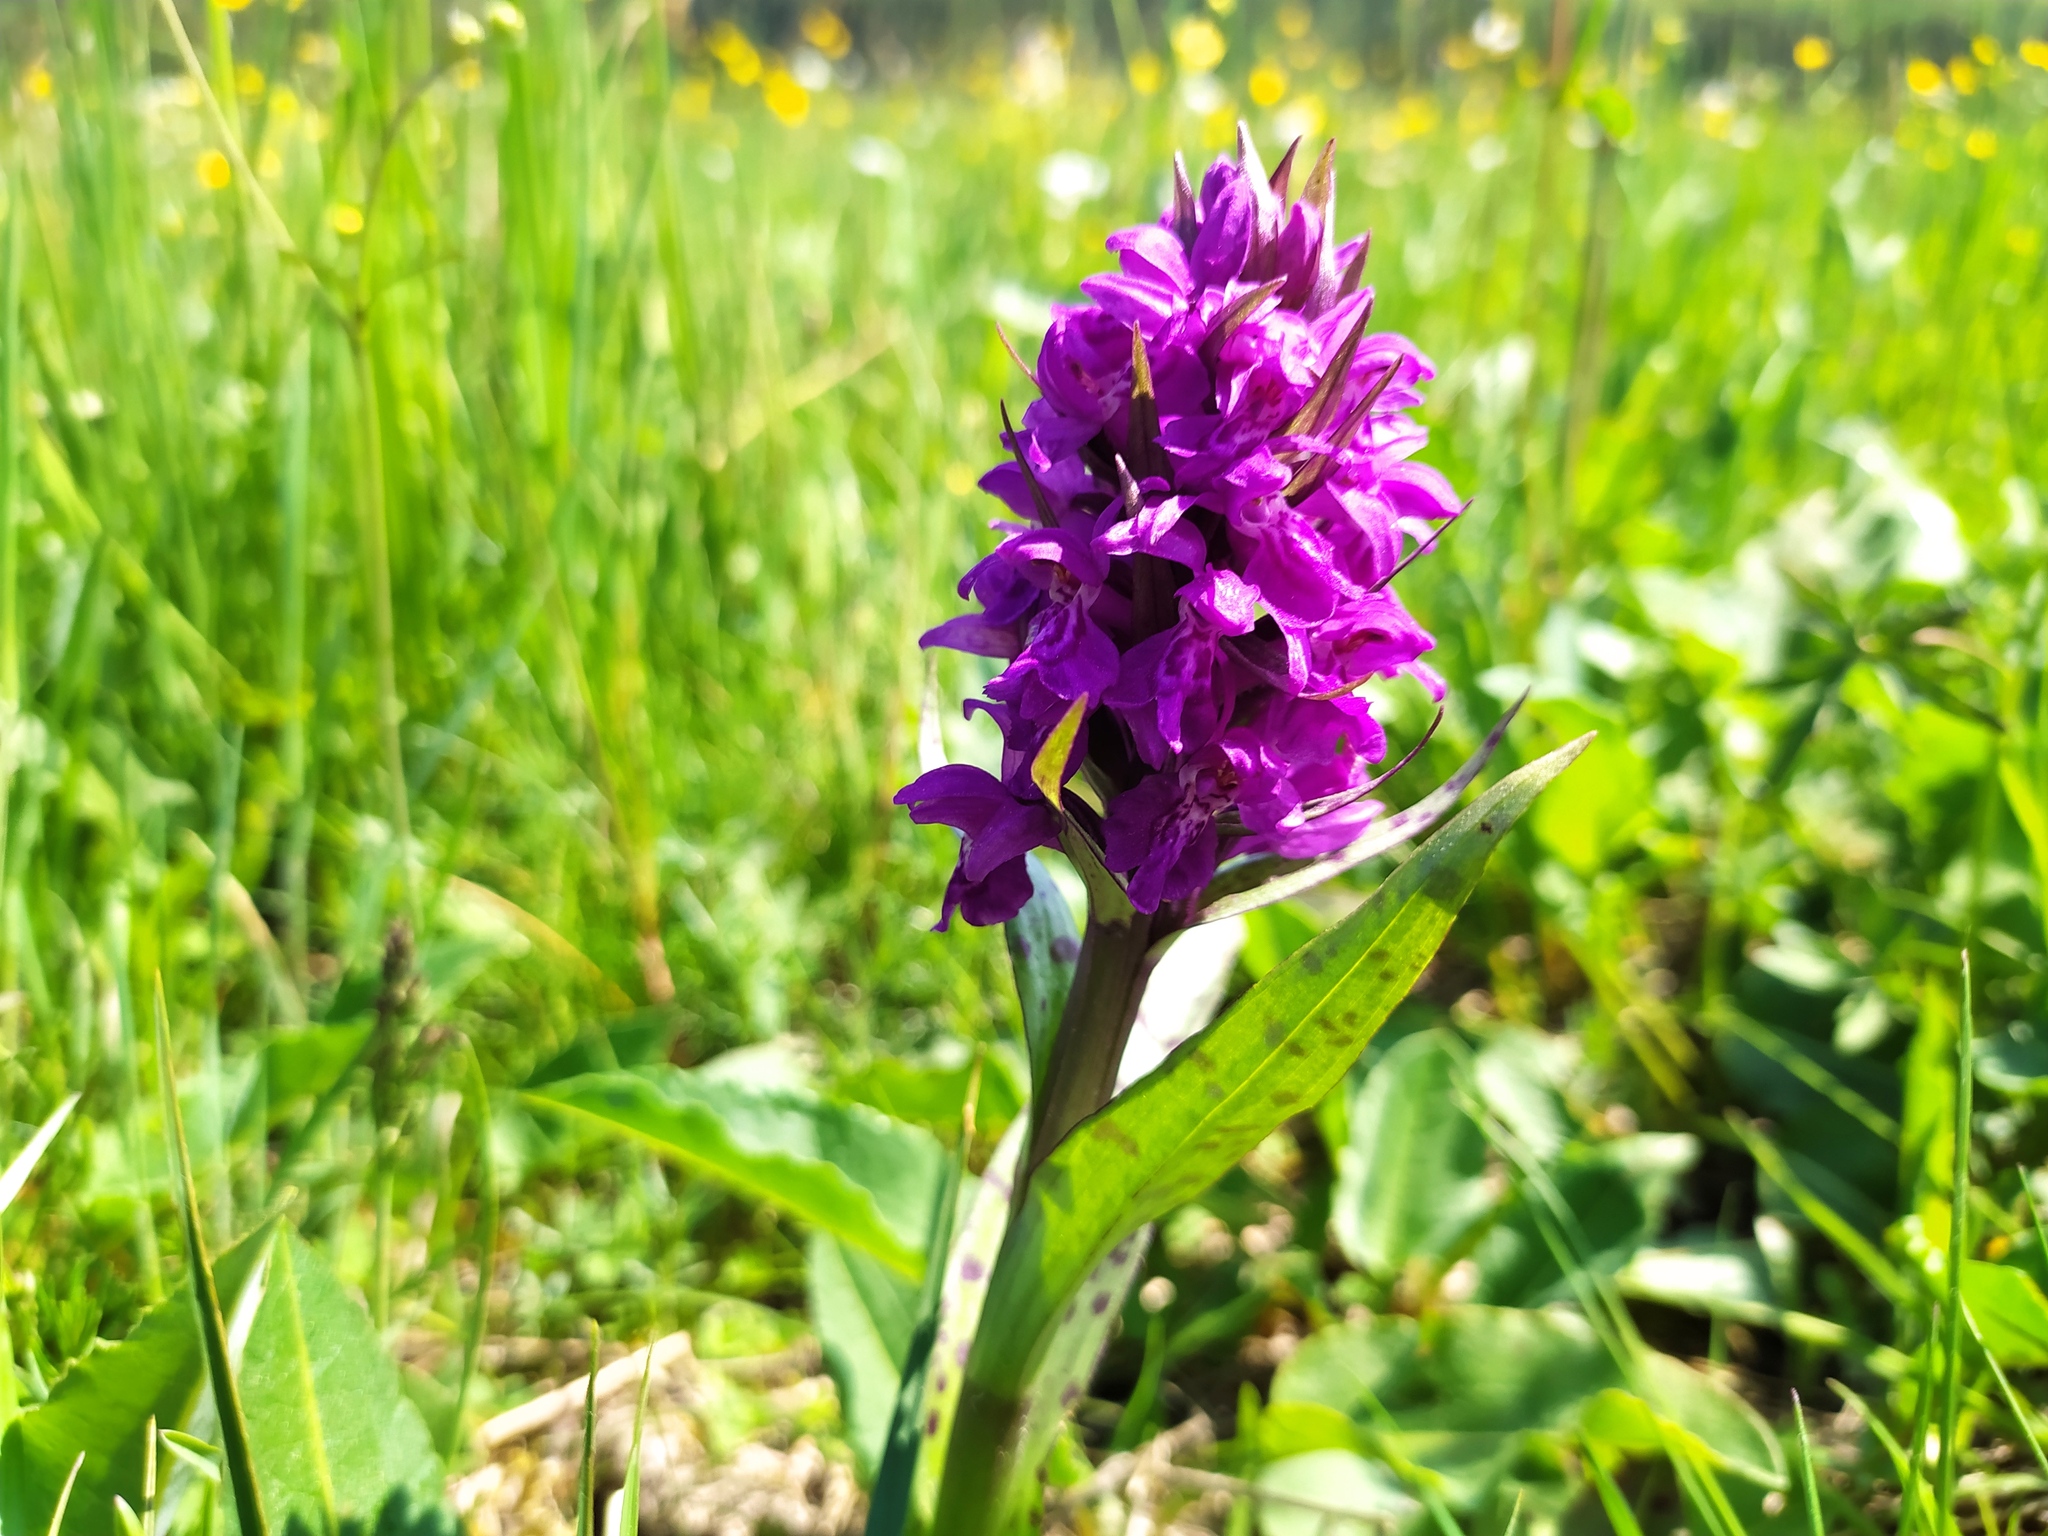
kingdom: Plantae
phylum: Tracheophyta
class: Liliopsida
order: Asparagales
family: Orchidaceae
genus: Dactylorhiza
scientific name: Dactylorhiza majalis
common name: Marsh orchid
